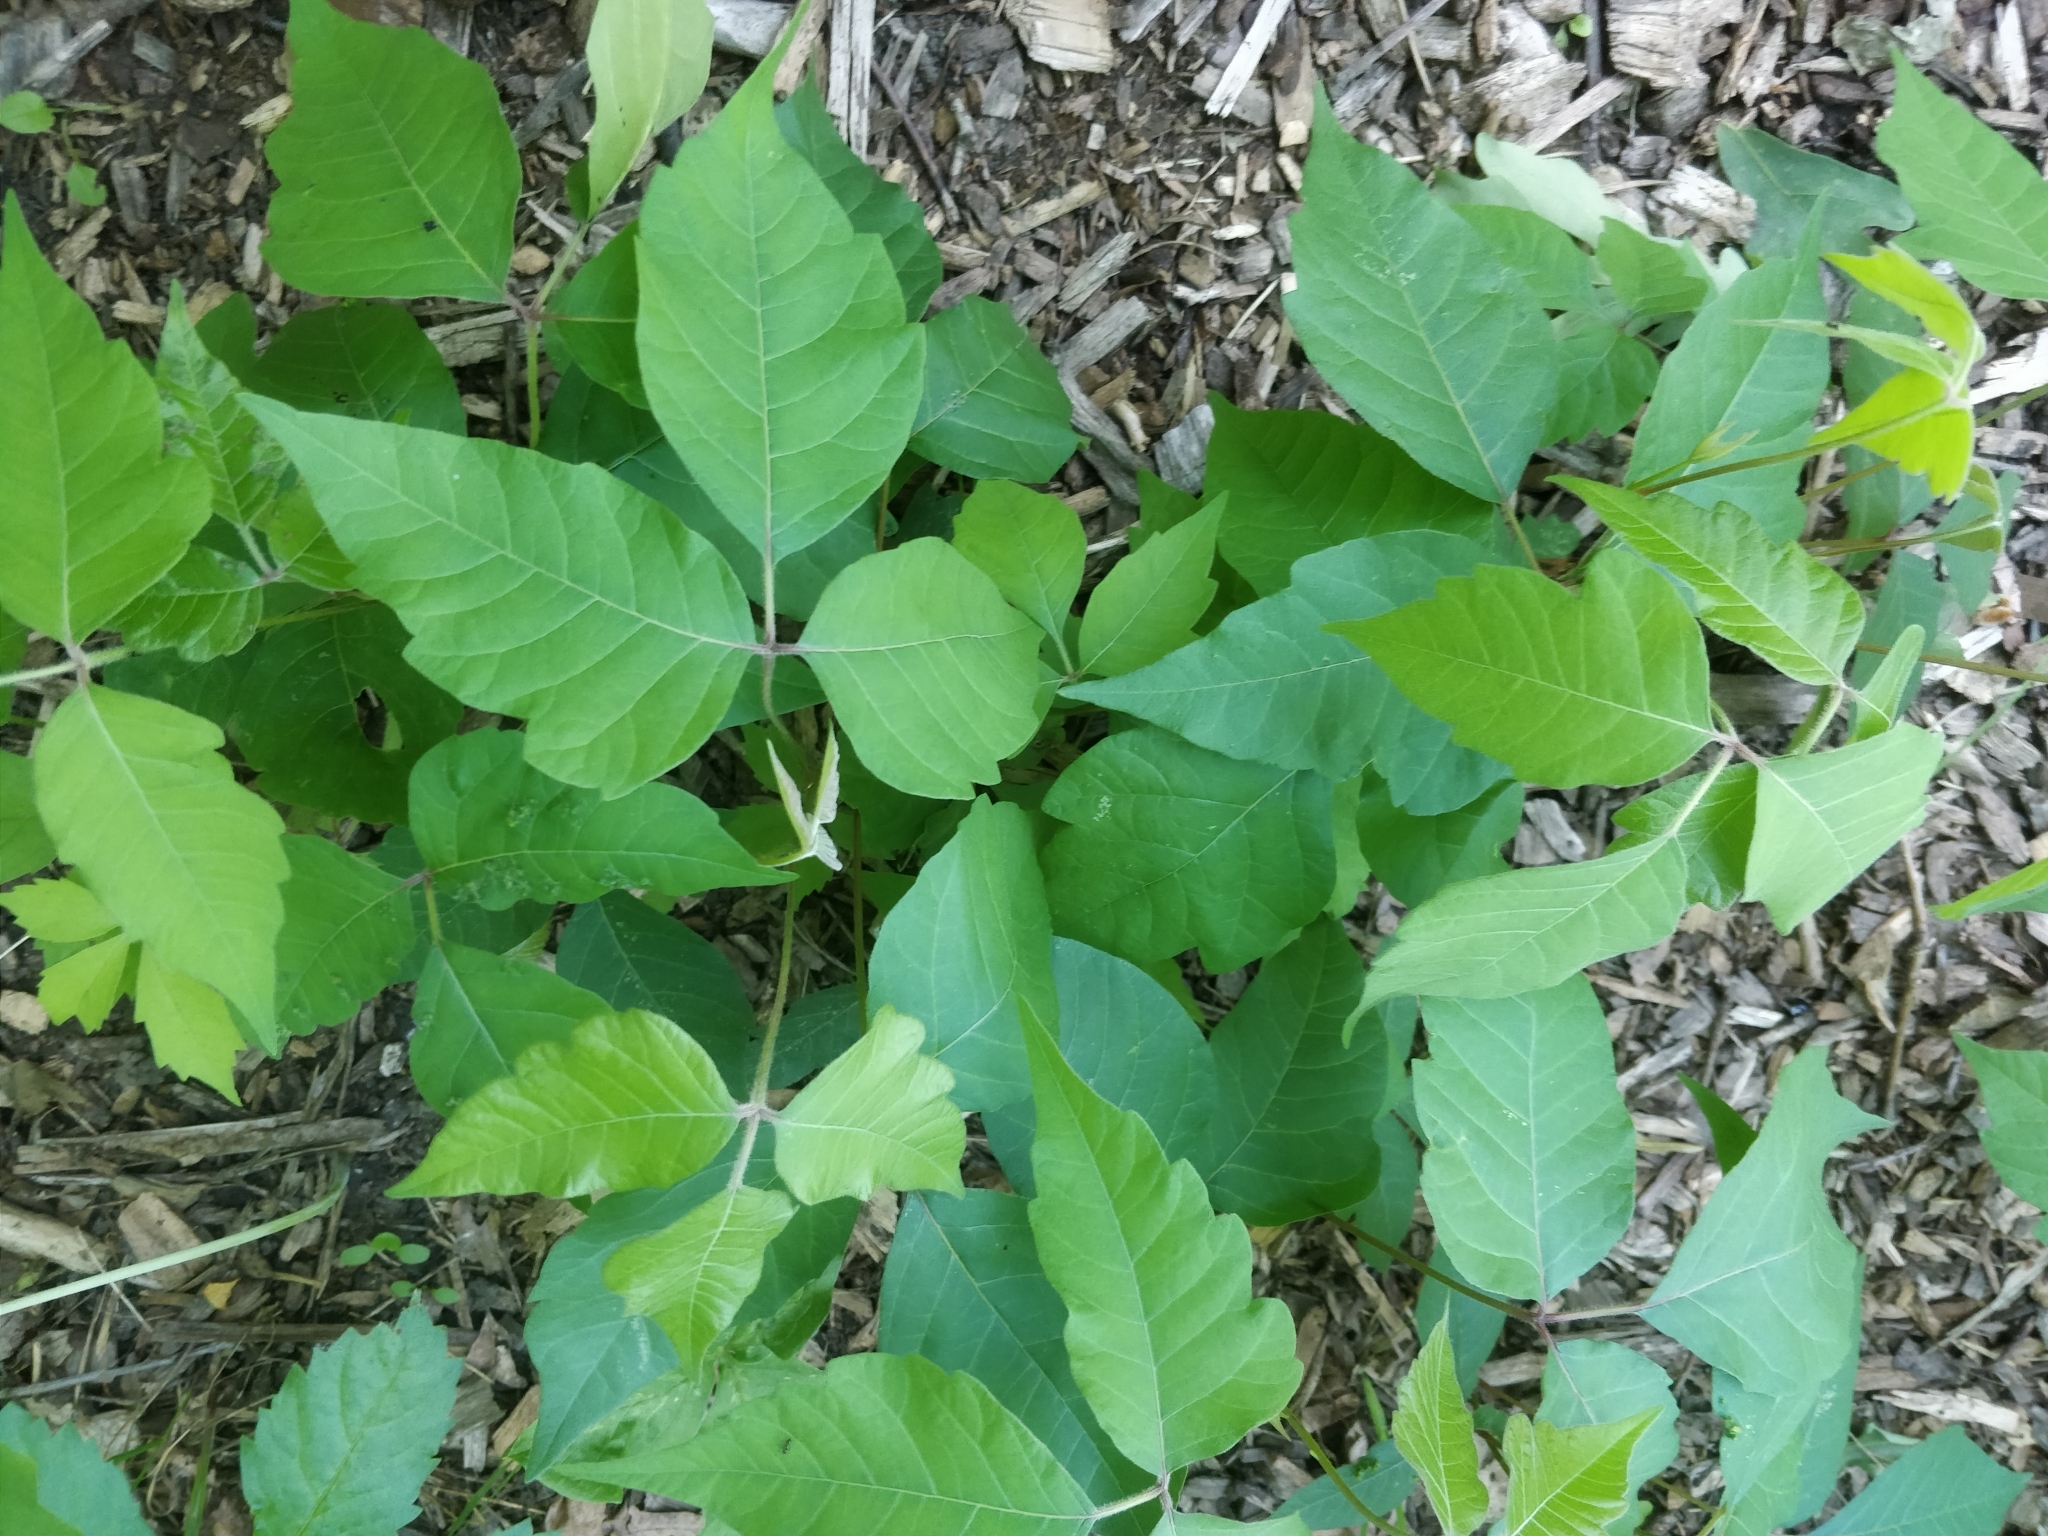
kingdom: Plantae
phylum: Tracheophyta
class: Magnoliopsida
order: Sapindales
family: Anacardiaceae
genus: Toxicodendron
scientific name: Toxicodendron radicans
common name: Poison ivy
